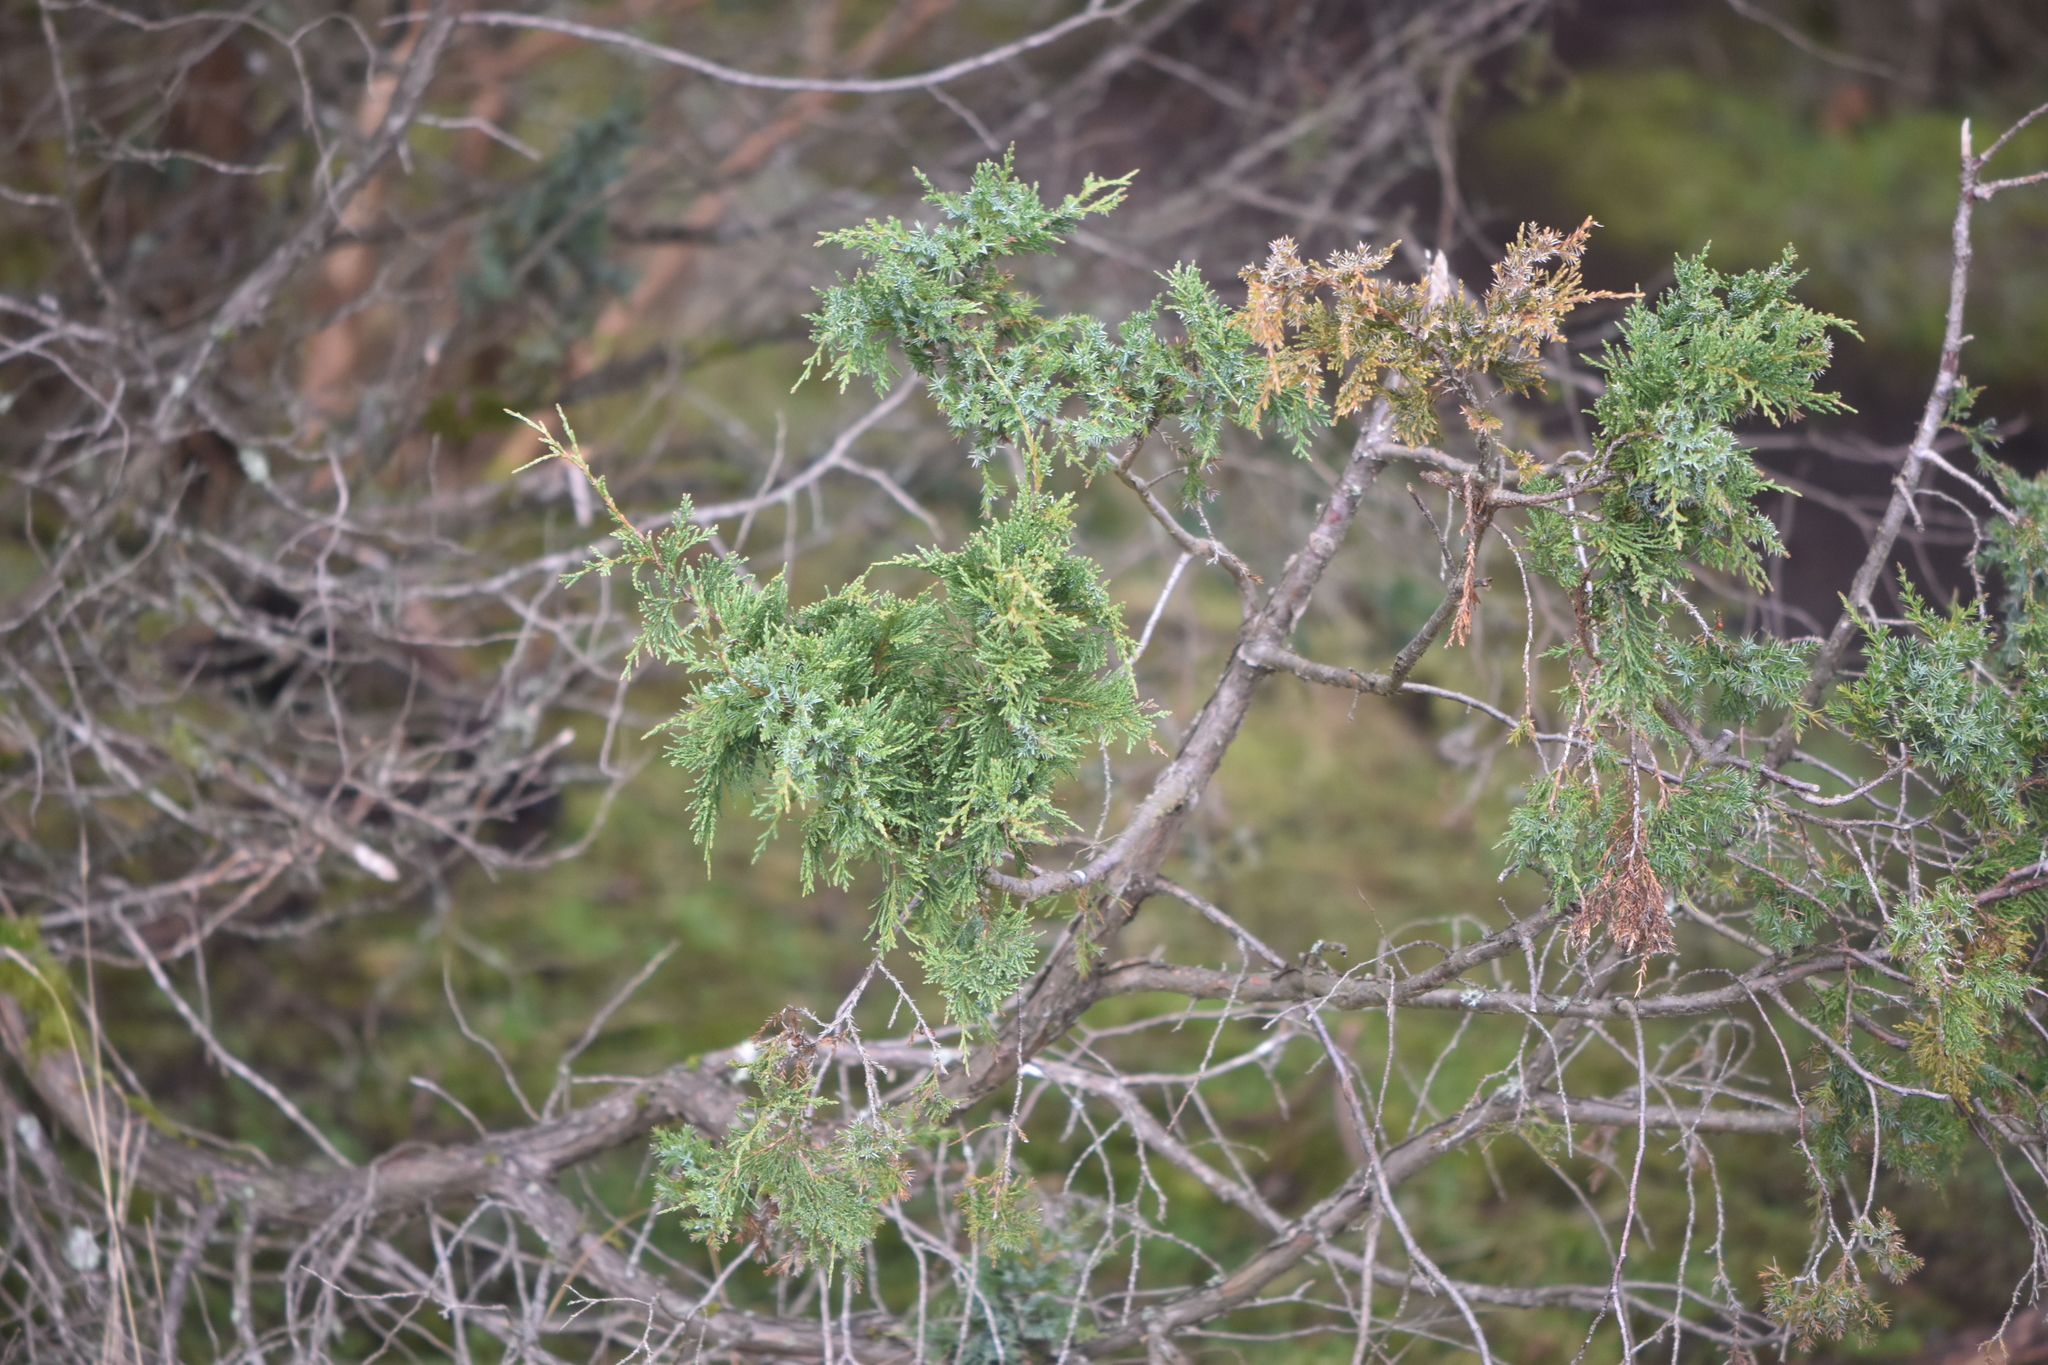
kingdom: Plantae
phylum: Tracheophyta
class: Pinopsida
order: Pinales
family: Cupressaceae
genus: Juniperus
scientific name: Juniperus scopulorum
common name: Rocky mountain juniper
